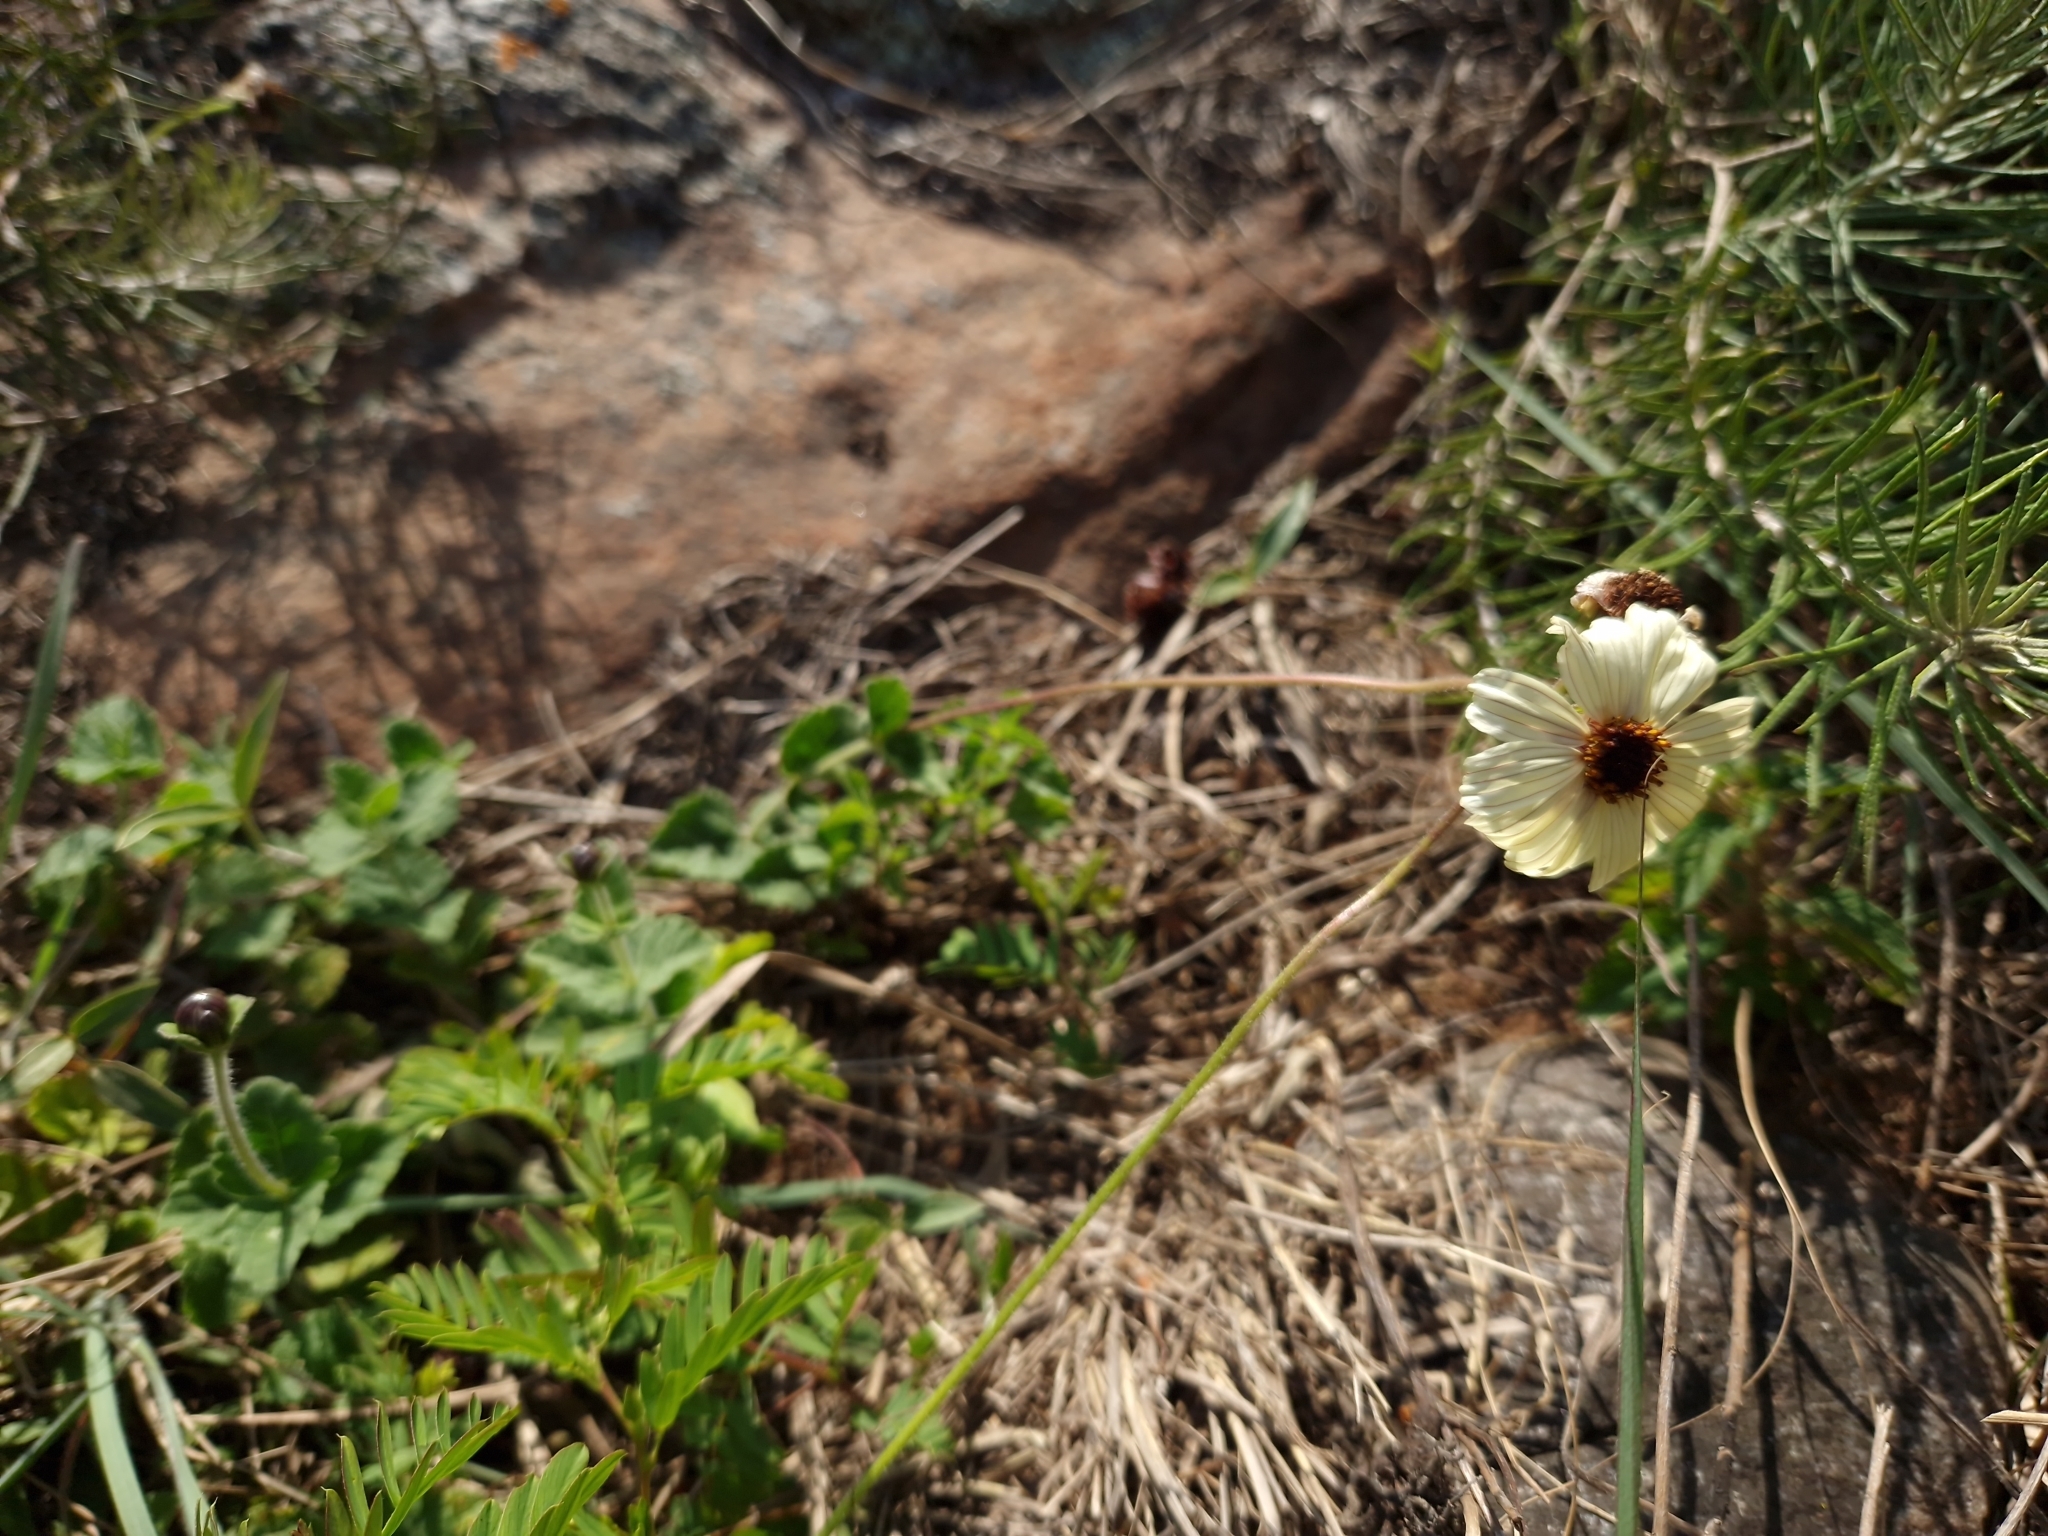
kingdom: Plantae
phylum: Tracheophyta
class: Magnoliopsida
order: Asterales
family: Asteraceae
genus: Calea
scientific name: Calea paraguayensis
